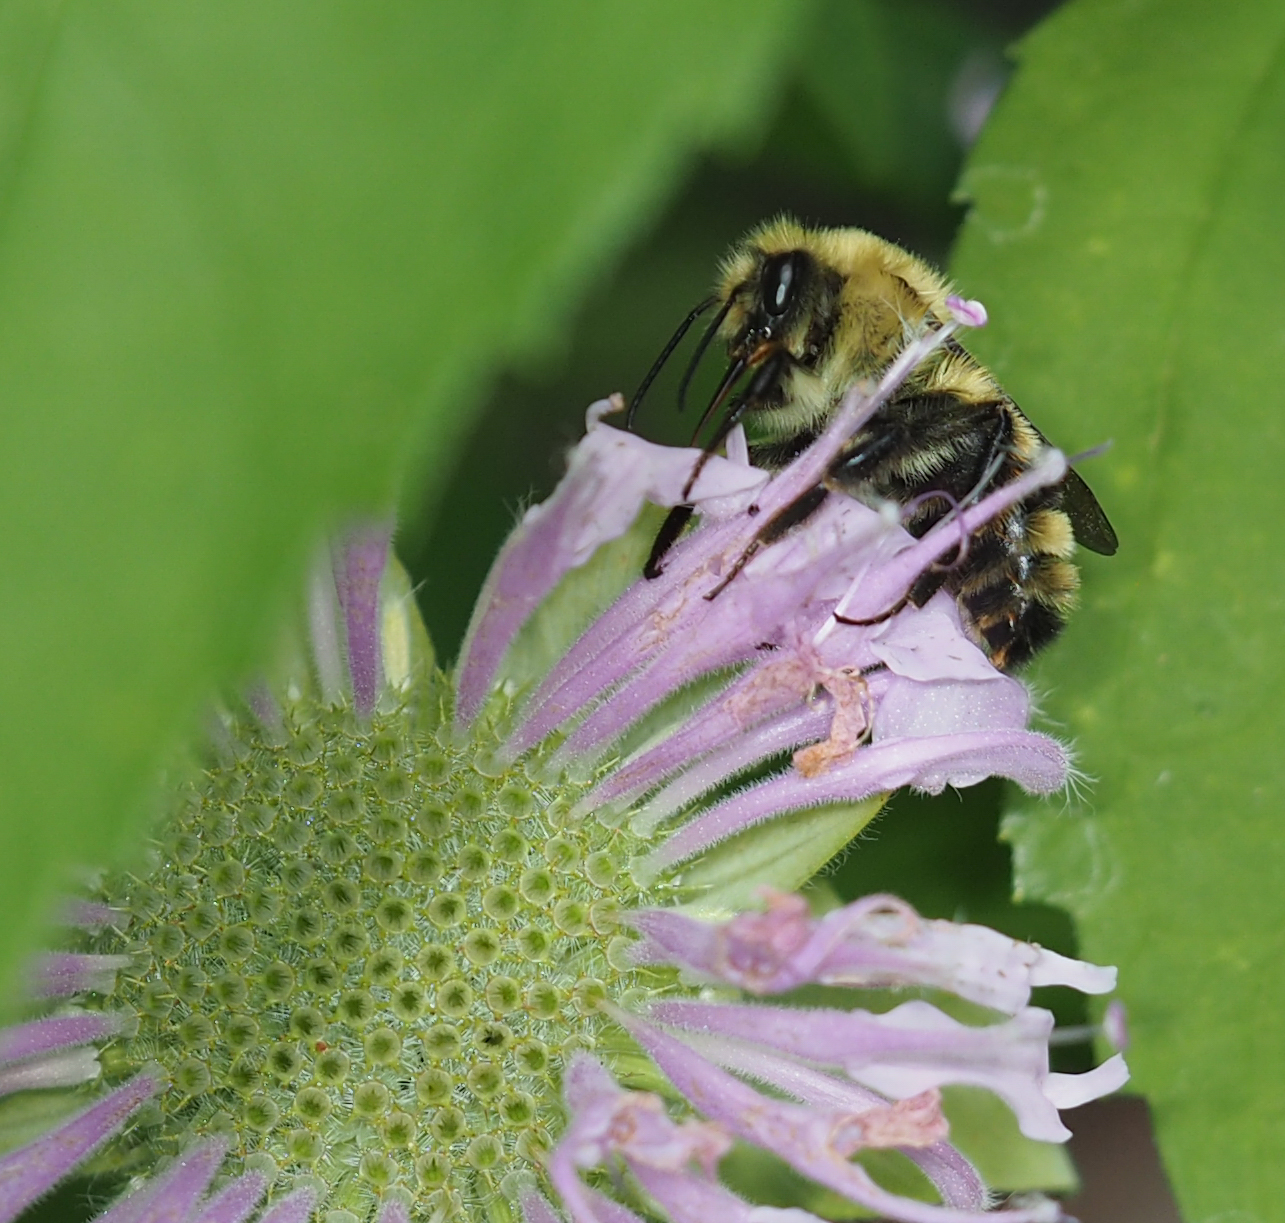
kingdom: Animalia
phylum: Arthropoda
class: Insecta
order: Hymenoptera
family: Apidae
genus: Bombus
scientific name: Bombus bimaculatus
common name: Two-spotted bumble bee
